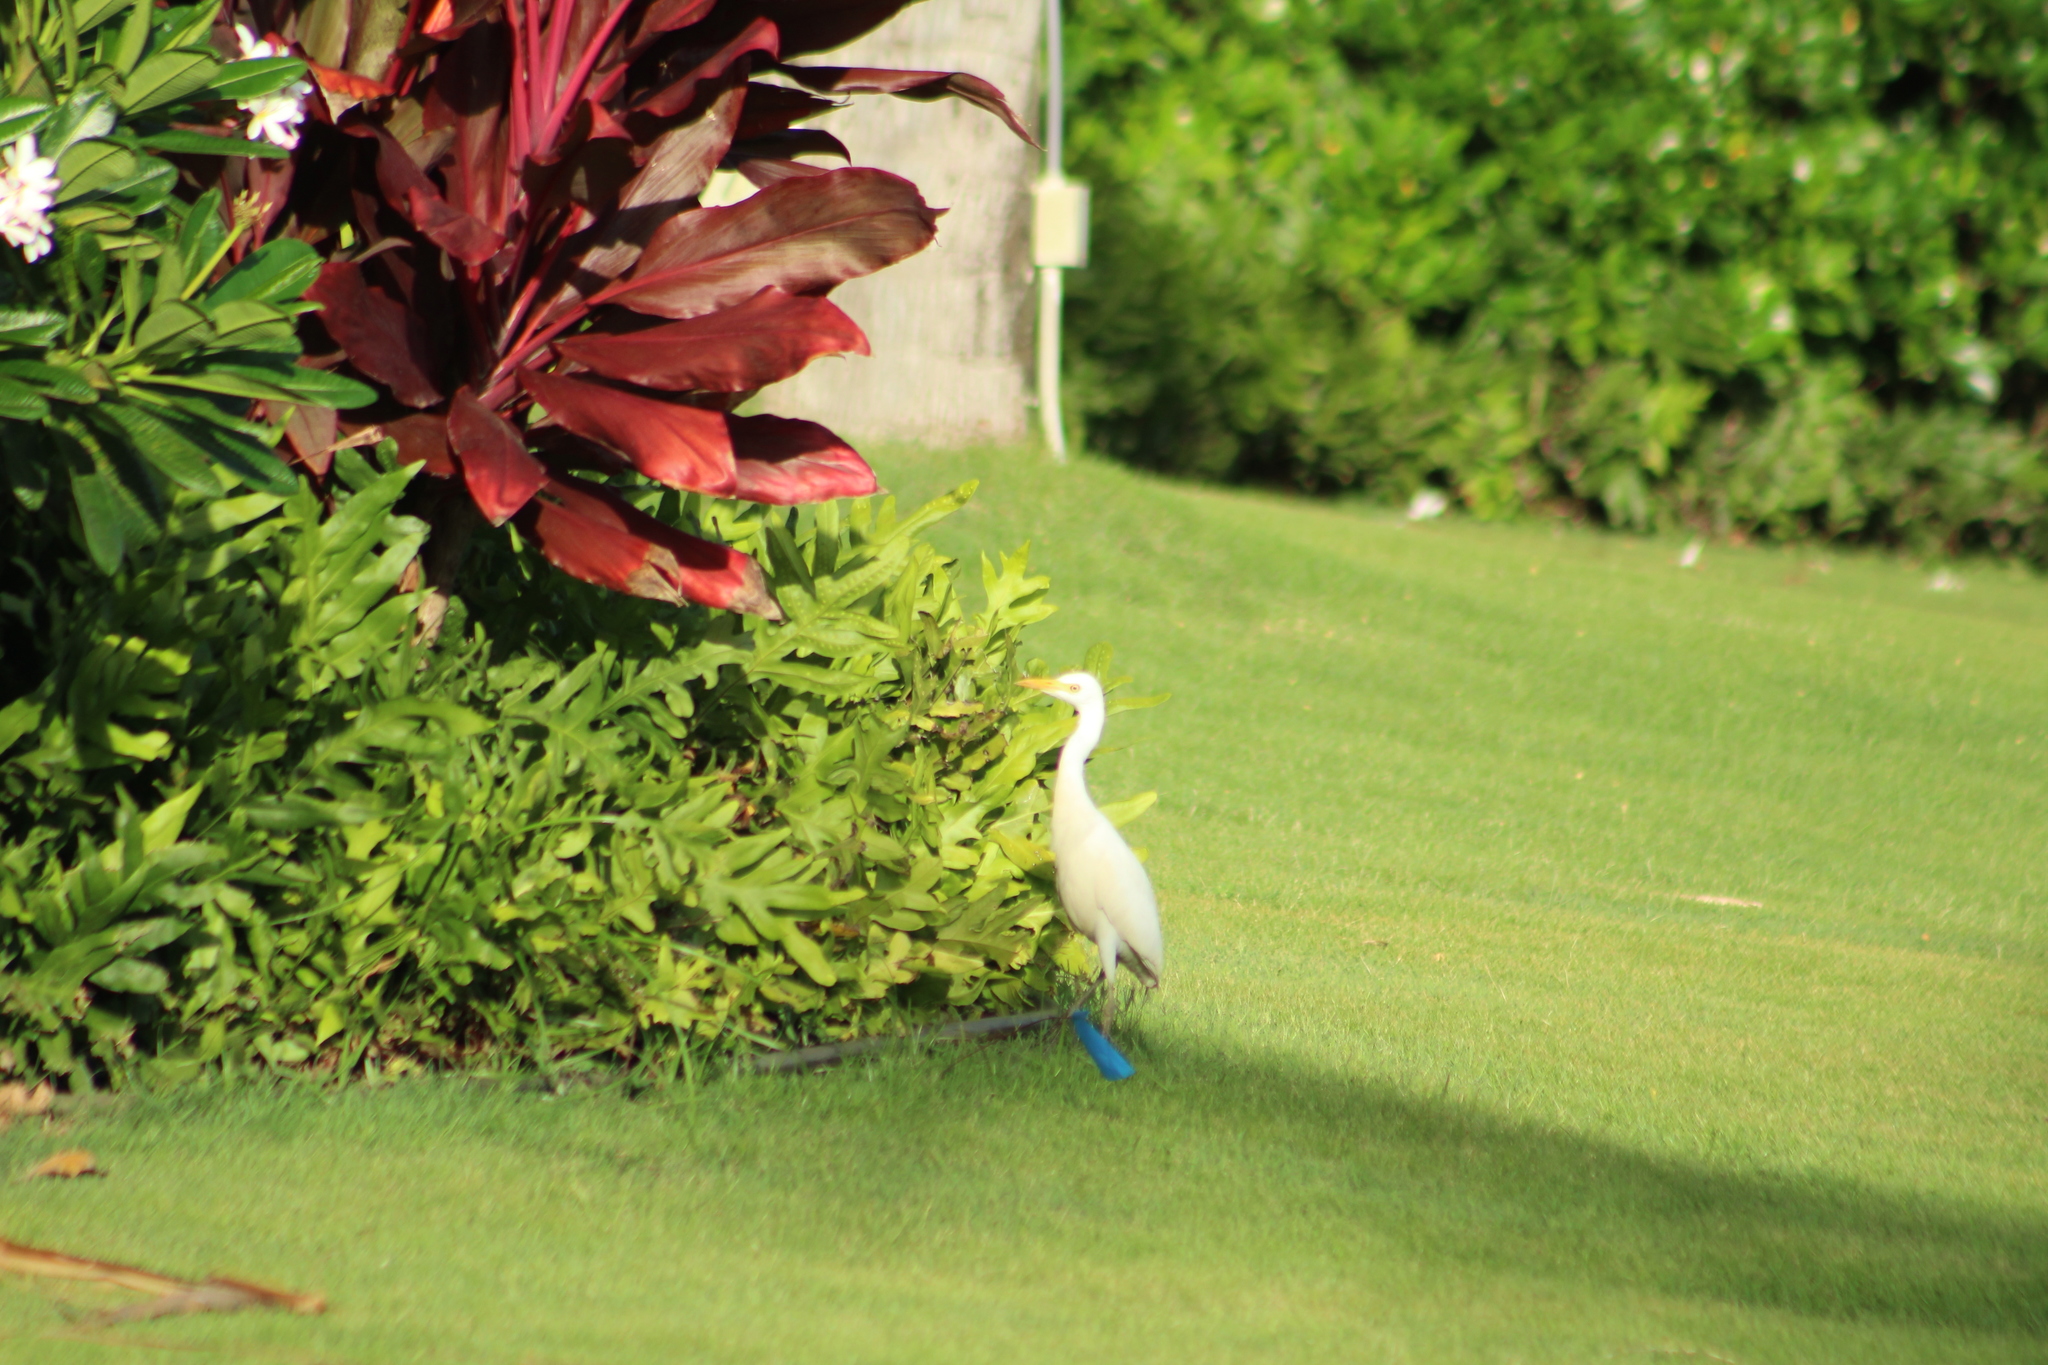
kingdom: Animalia
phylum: Chordata
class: Aves
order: Pelecaniformes
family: Ardeidae
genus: Bubulcus
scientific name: Bubulcus ibis
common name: Cattle egret
